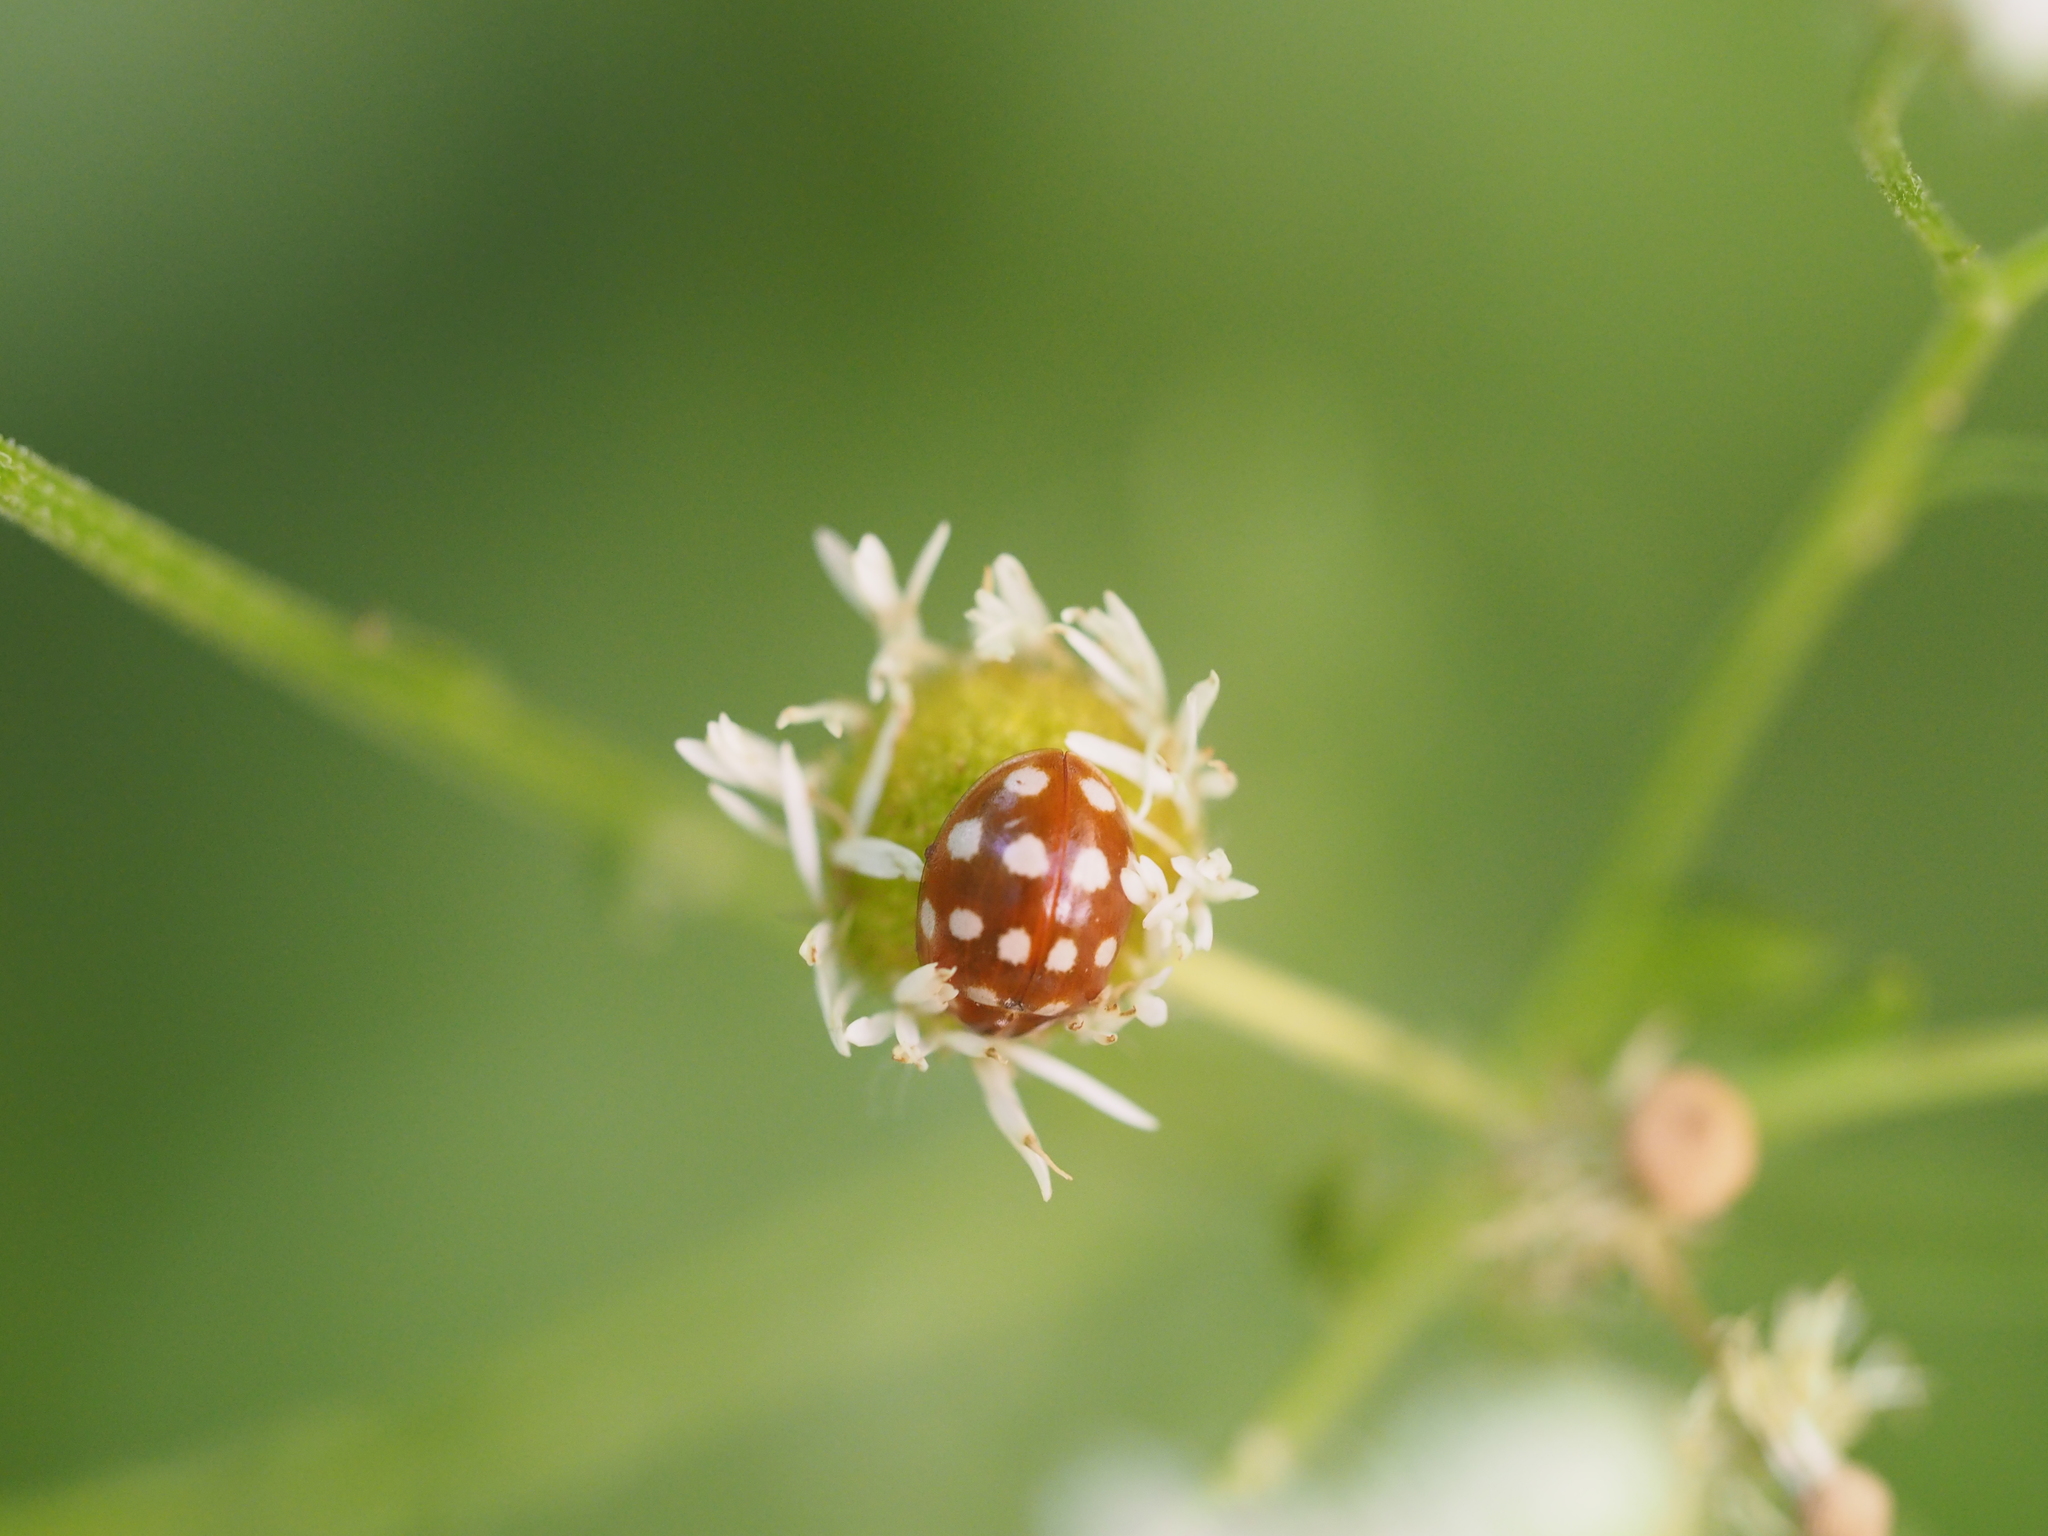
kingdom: Animalia
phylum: Arthropoda
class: Insecta
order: Coleoptera
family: Coccinellidae
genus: Calvia
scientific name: Calvia quatuordecimguttata
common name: Cream-spot ladybird
